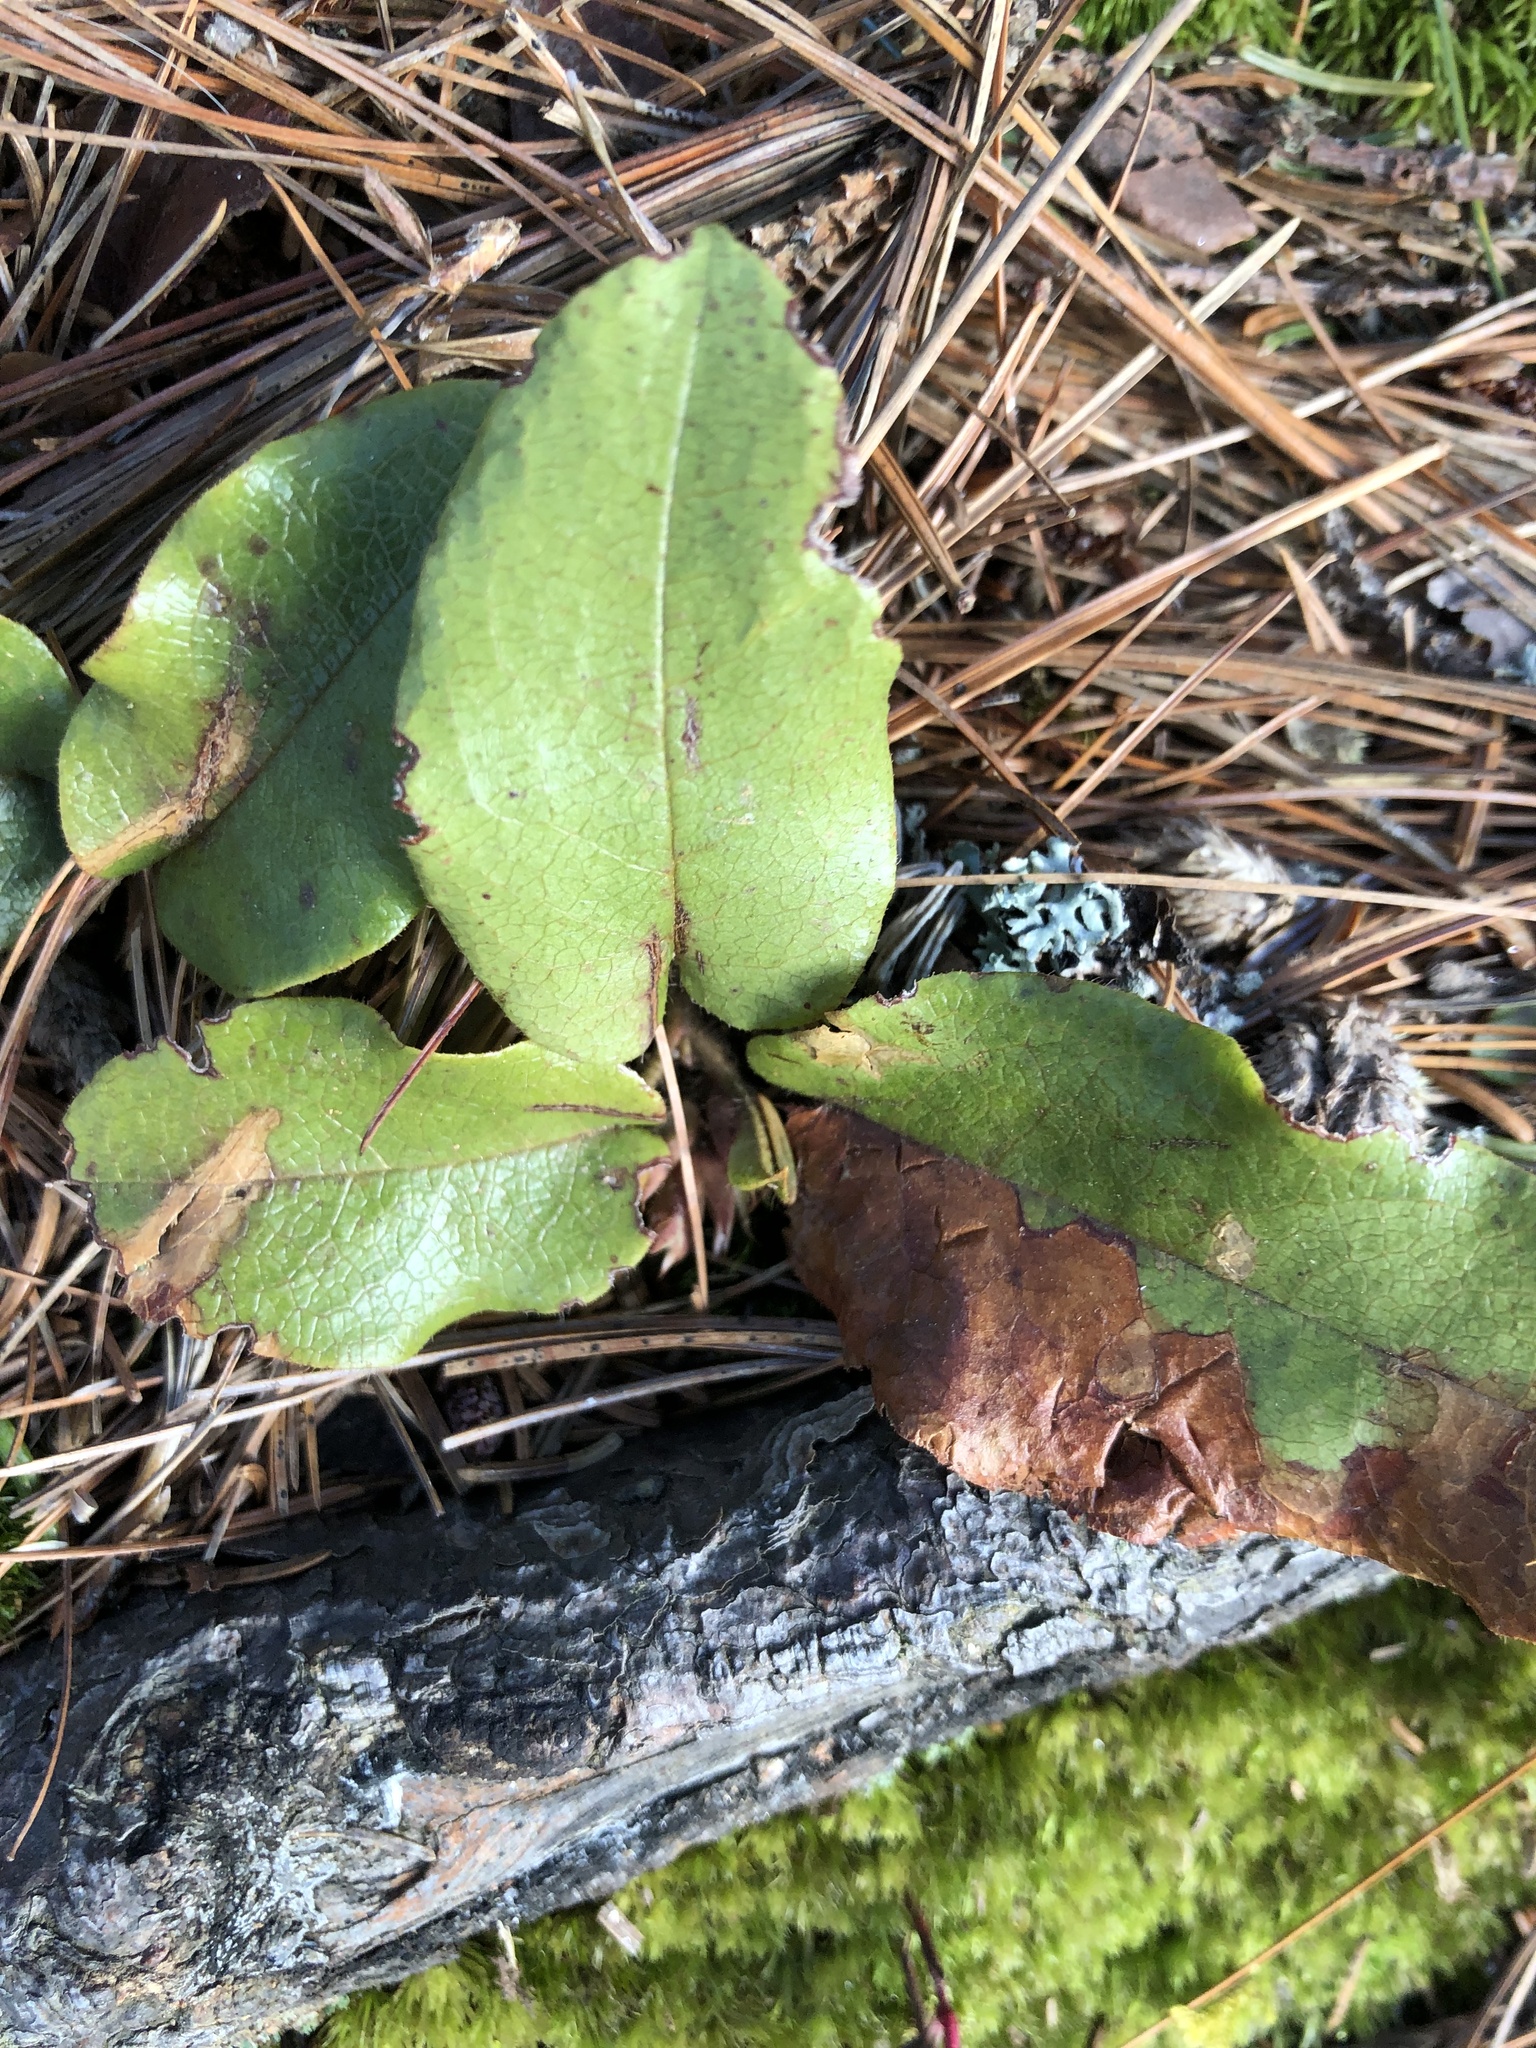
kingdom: Plantae
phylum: Tracheophyta
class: Magnoliopsida
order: Ericales
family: Ericaceae
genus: Epigaea
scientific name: Epigaea repens
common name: Gravelroot
